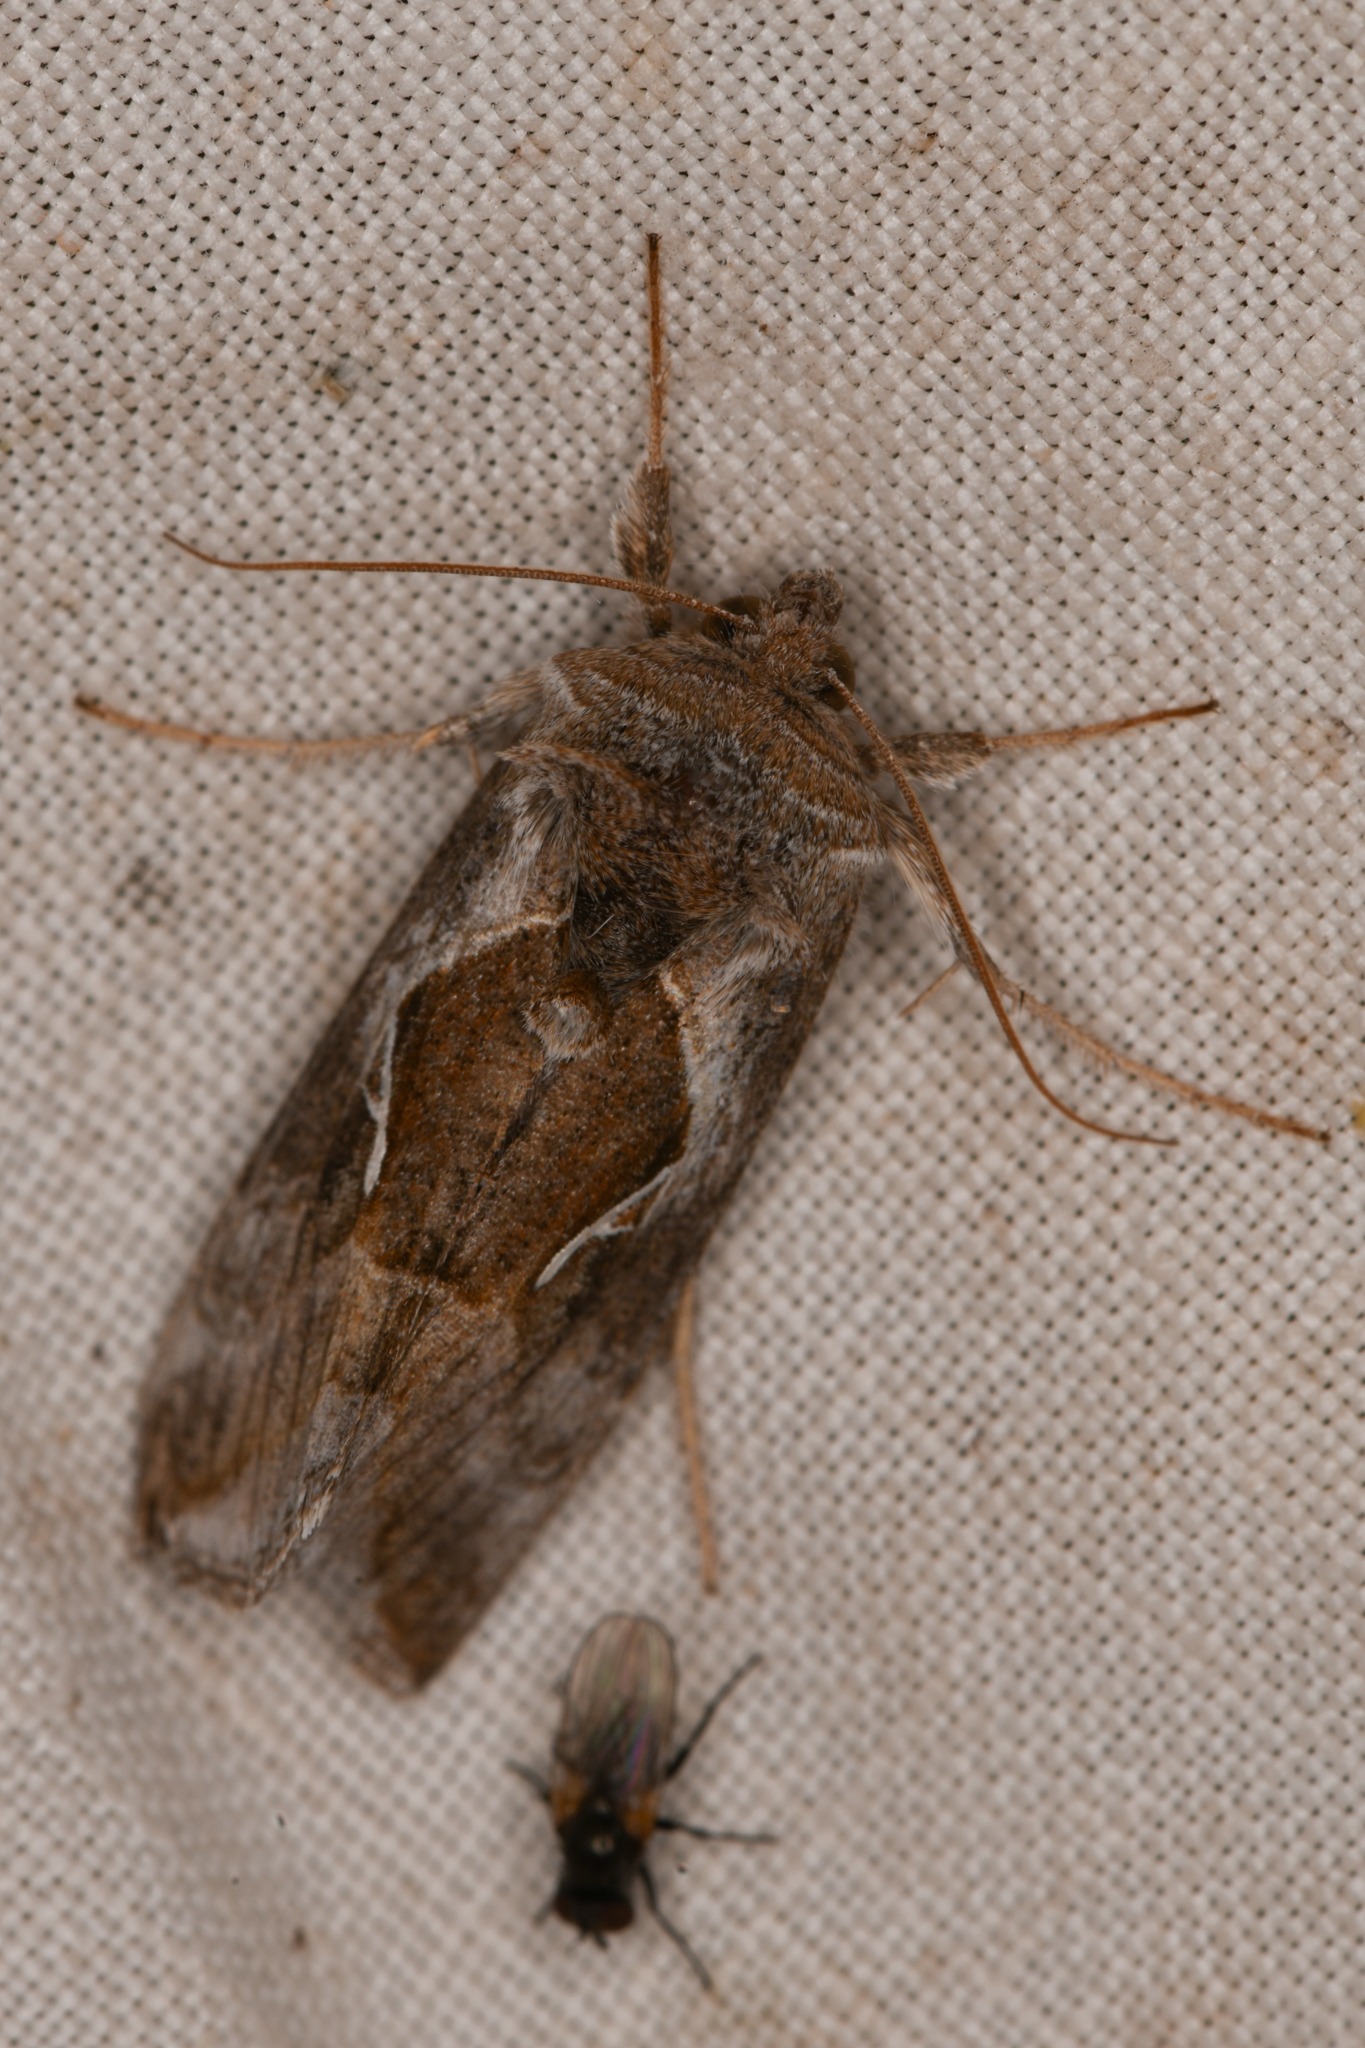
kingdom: Animalia
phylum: Arthropoda
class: Insecta
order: Lepidoptera
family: Noctuidae
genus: Anagrapha
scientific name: Anagrapha falcifera
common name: Celery looper
